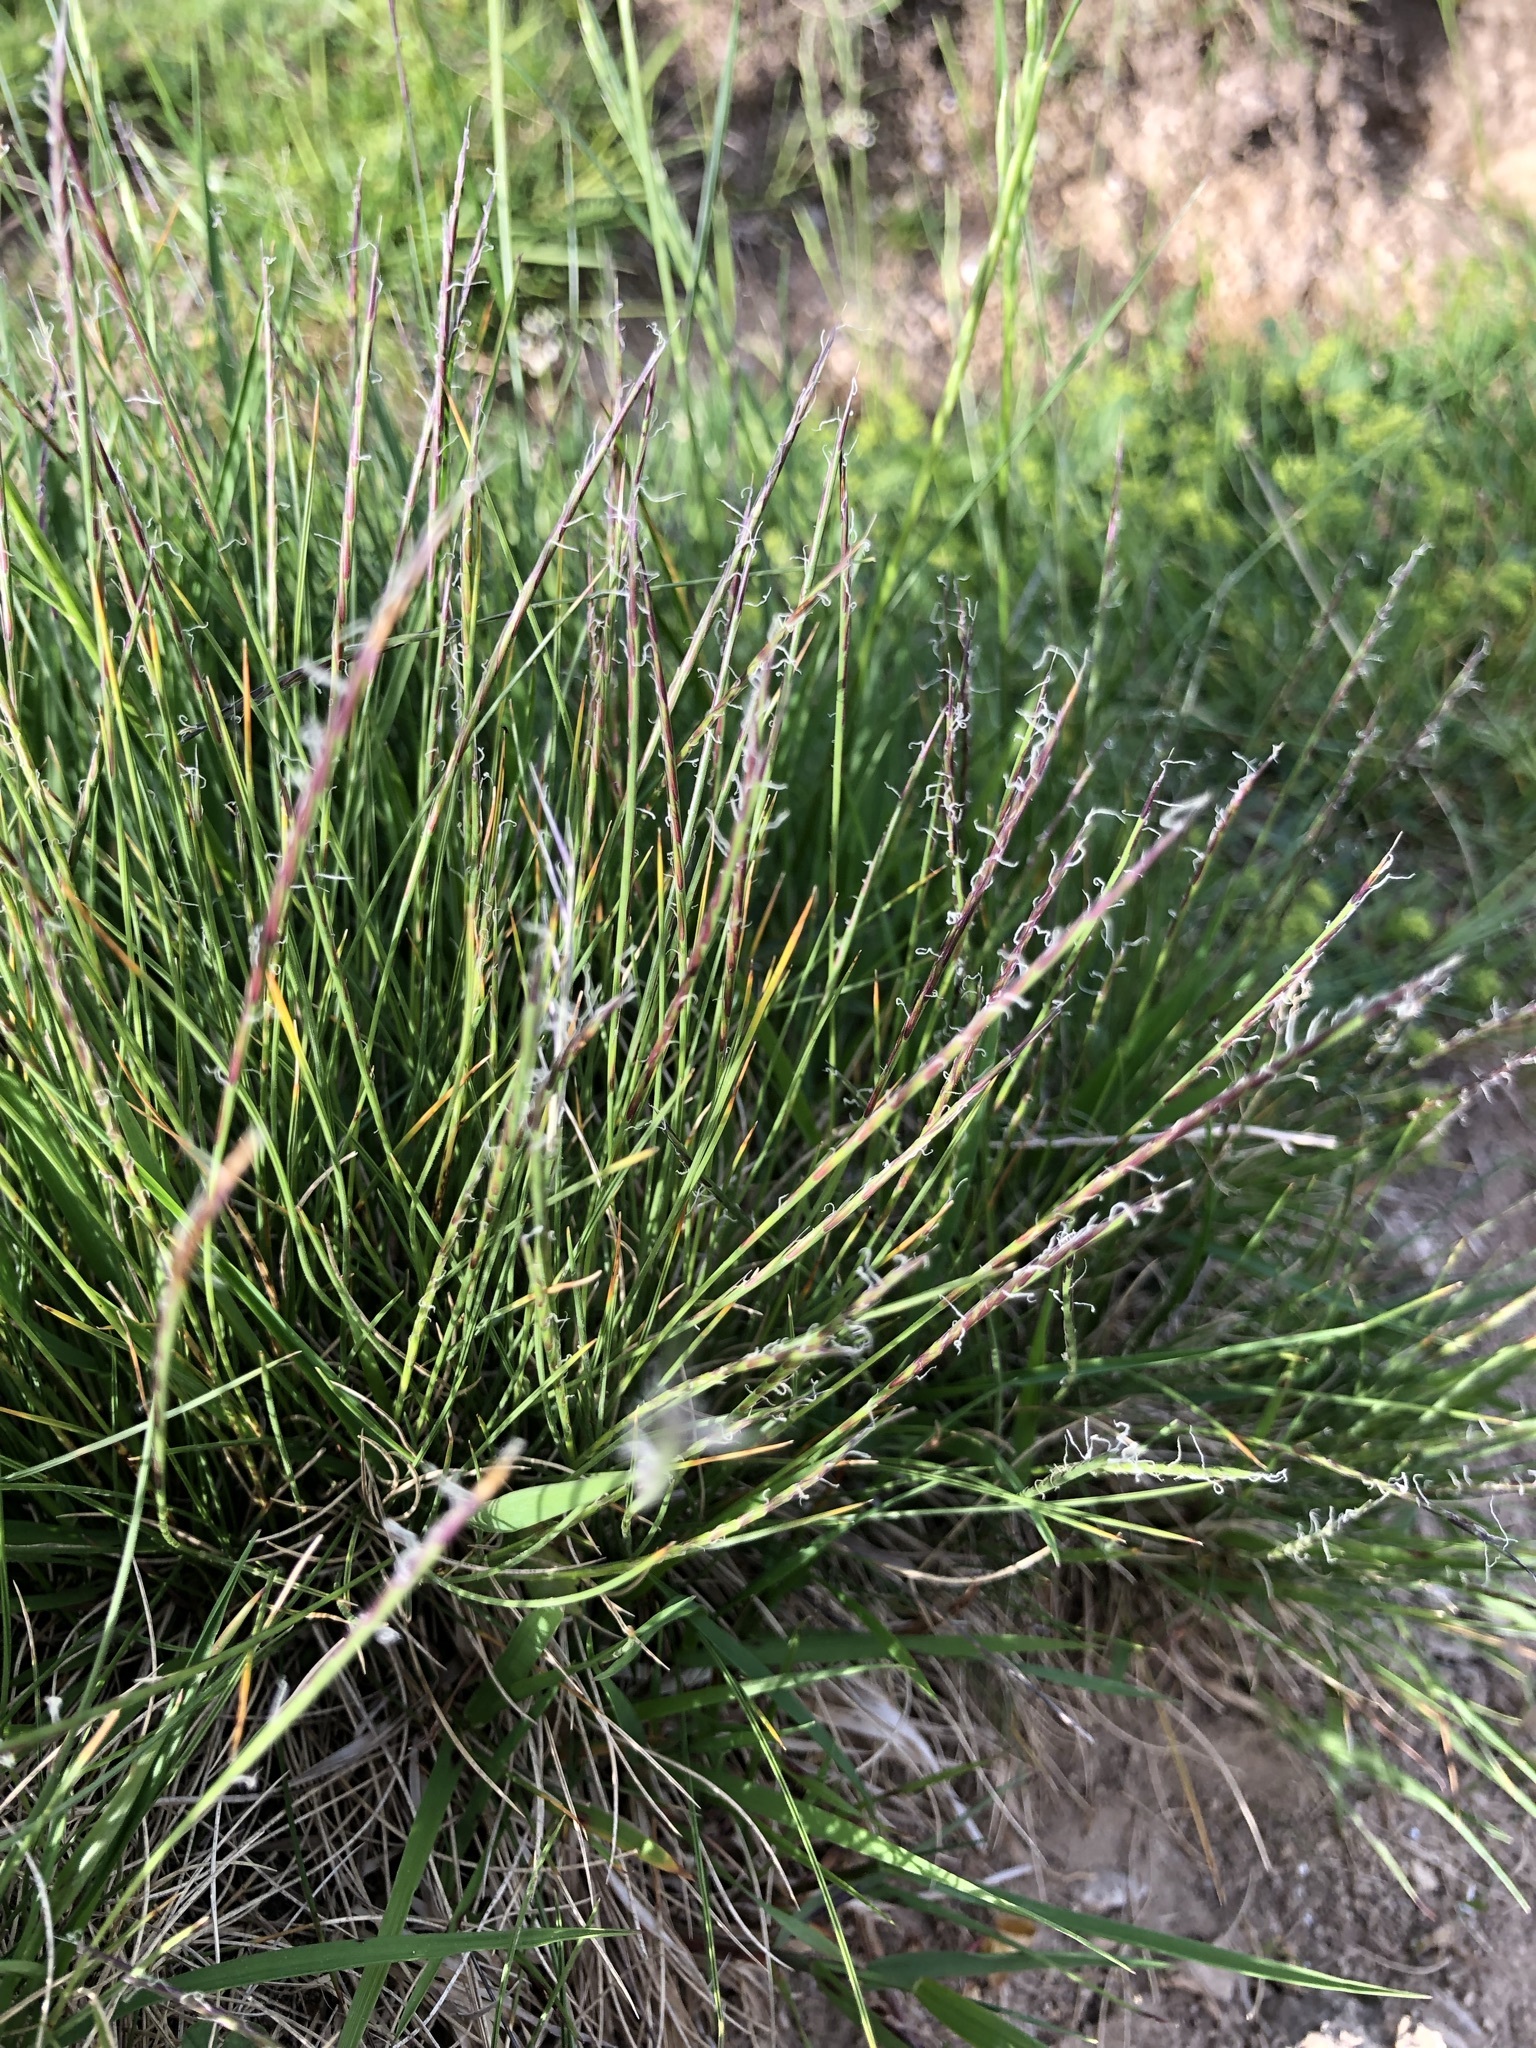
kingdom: Plantae
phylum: Tracheophyta
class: Liliopsida
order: Poales
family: Poaceae
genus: Nardus
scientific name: Nardus stricta
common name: Mat-grass
